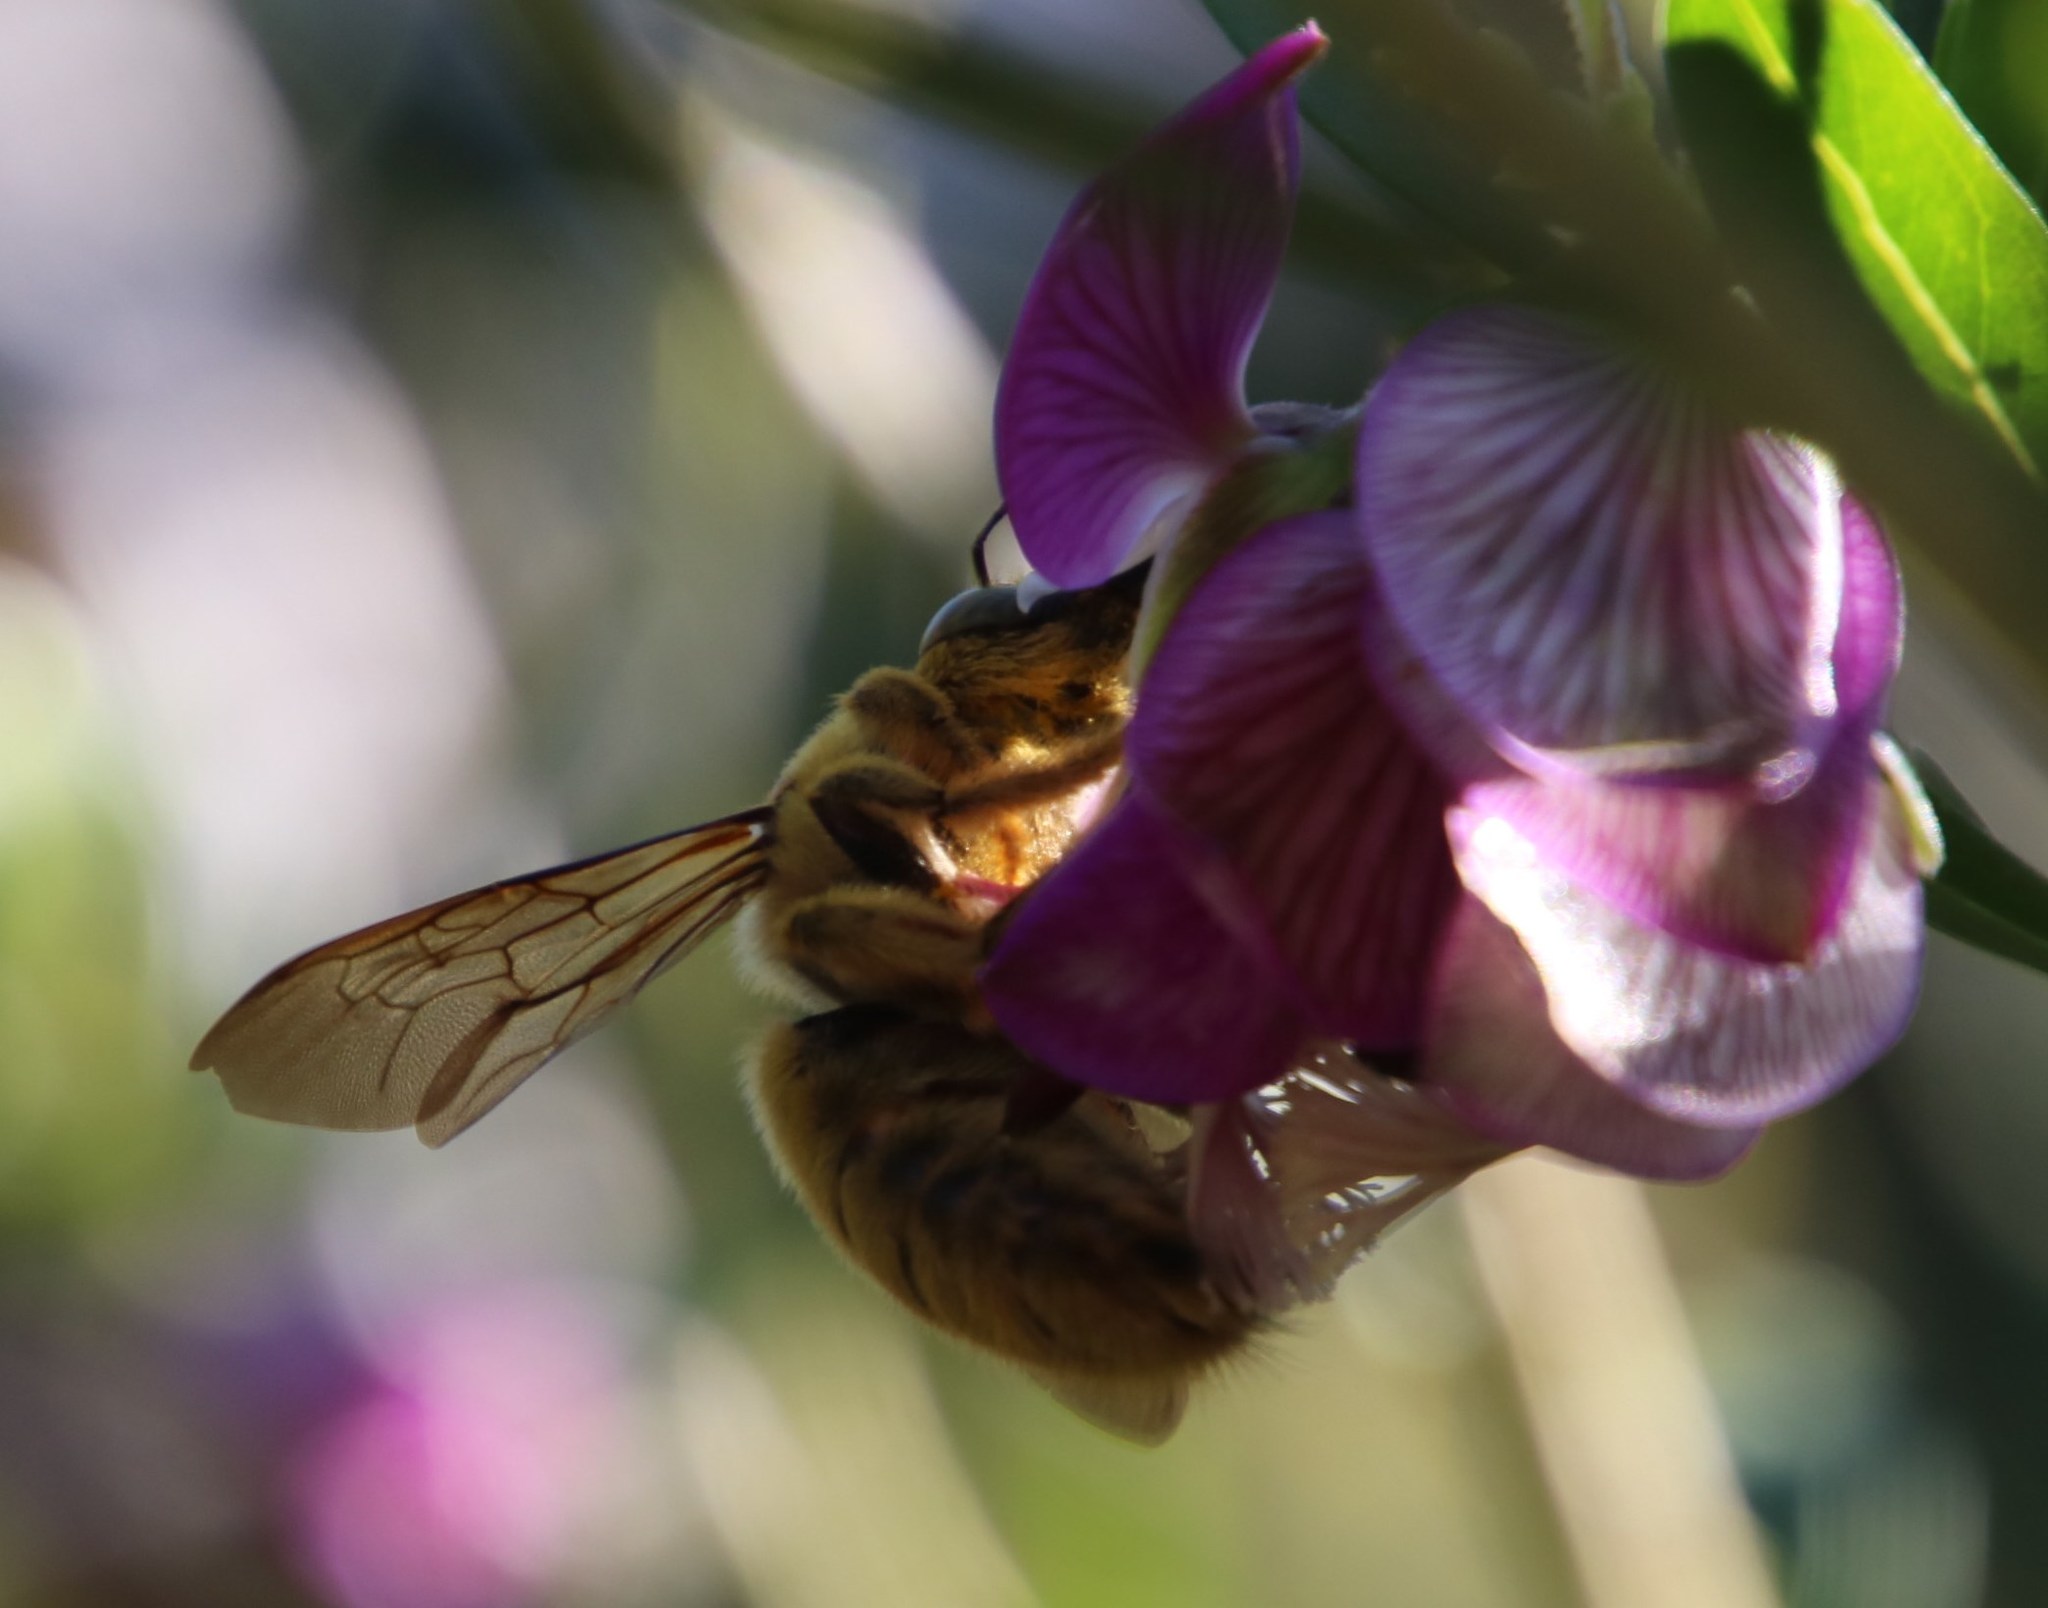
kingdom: Plantae
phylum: Tracheophyta
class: Magnoliopsida
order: Fabales
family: Polygalaceae
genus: Polygala
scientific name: Polygala myrtifolia
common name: Myrtle-leaf milkwort
